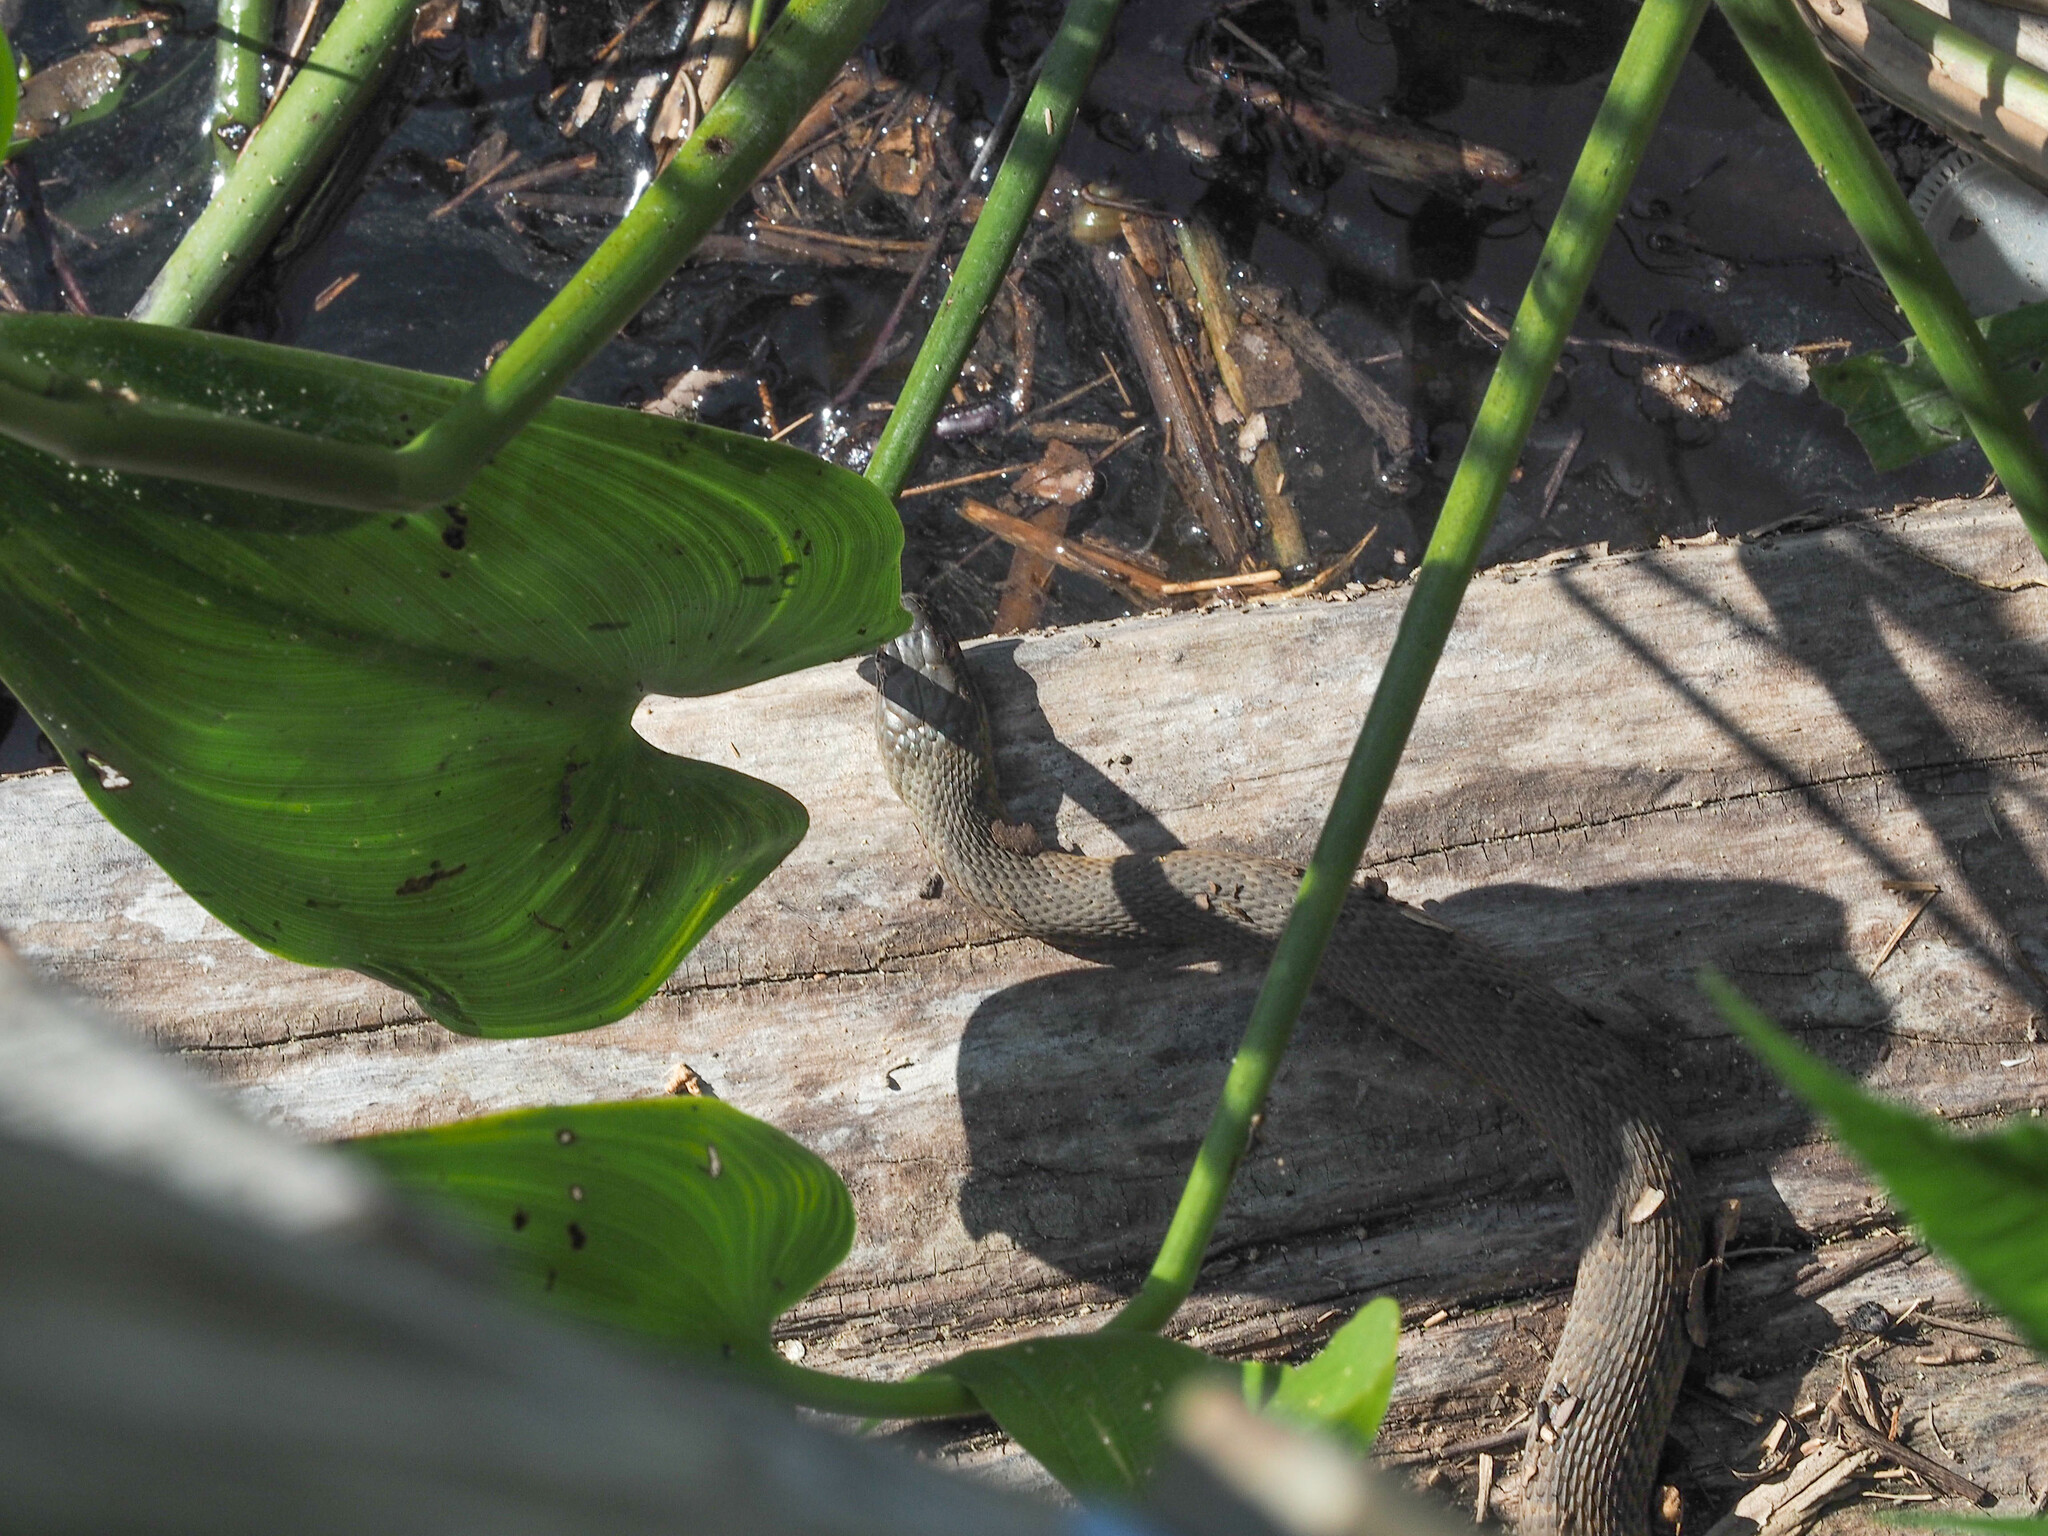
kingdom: Animalia
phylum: Chordata
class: Squamata
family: Colubridae
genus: Nerodia
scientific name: Nerodia sipedon
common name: Northern water snake
